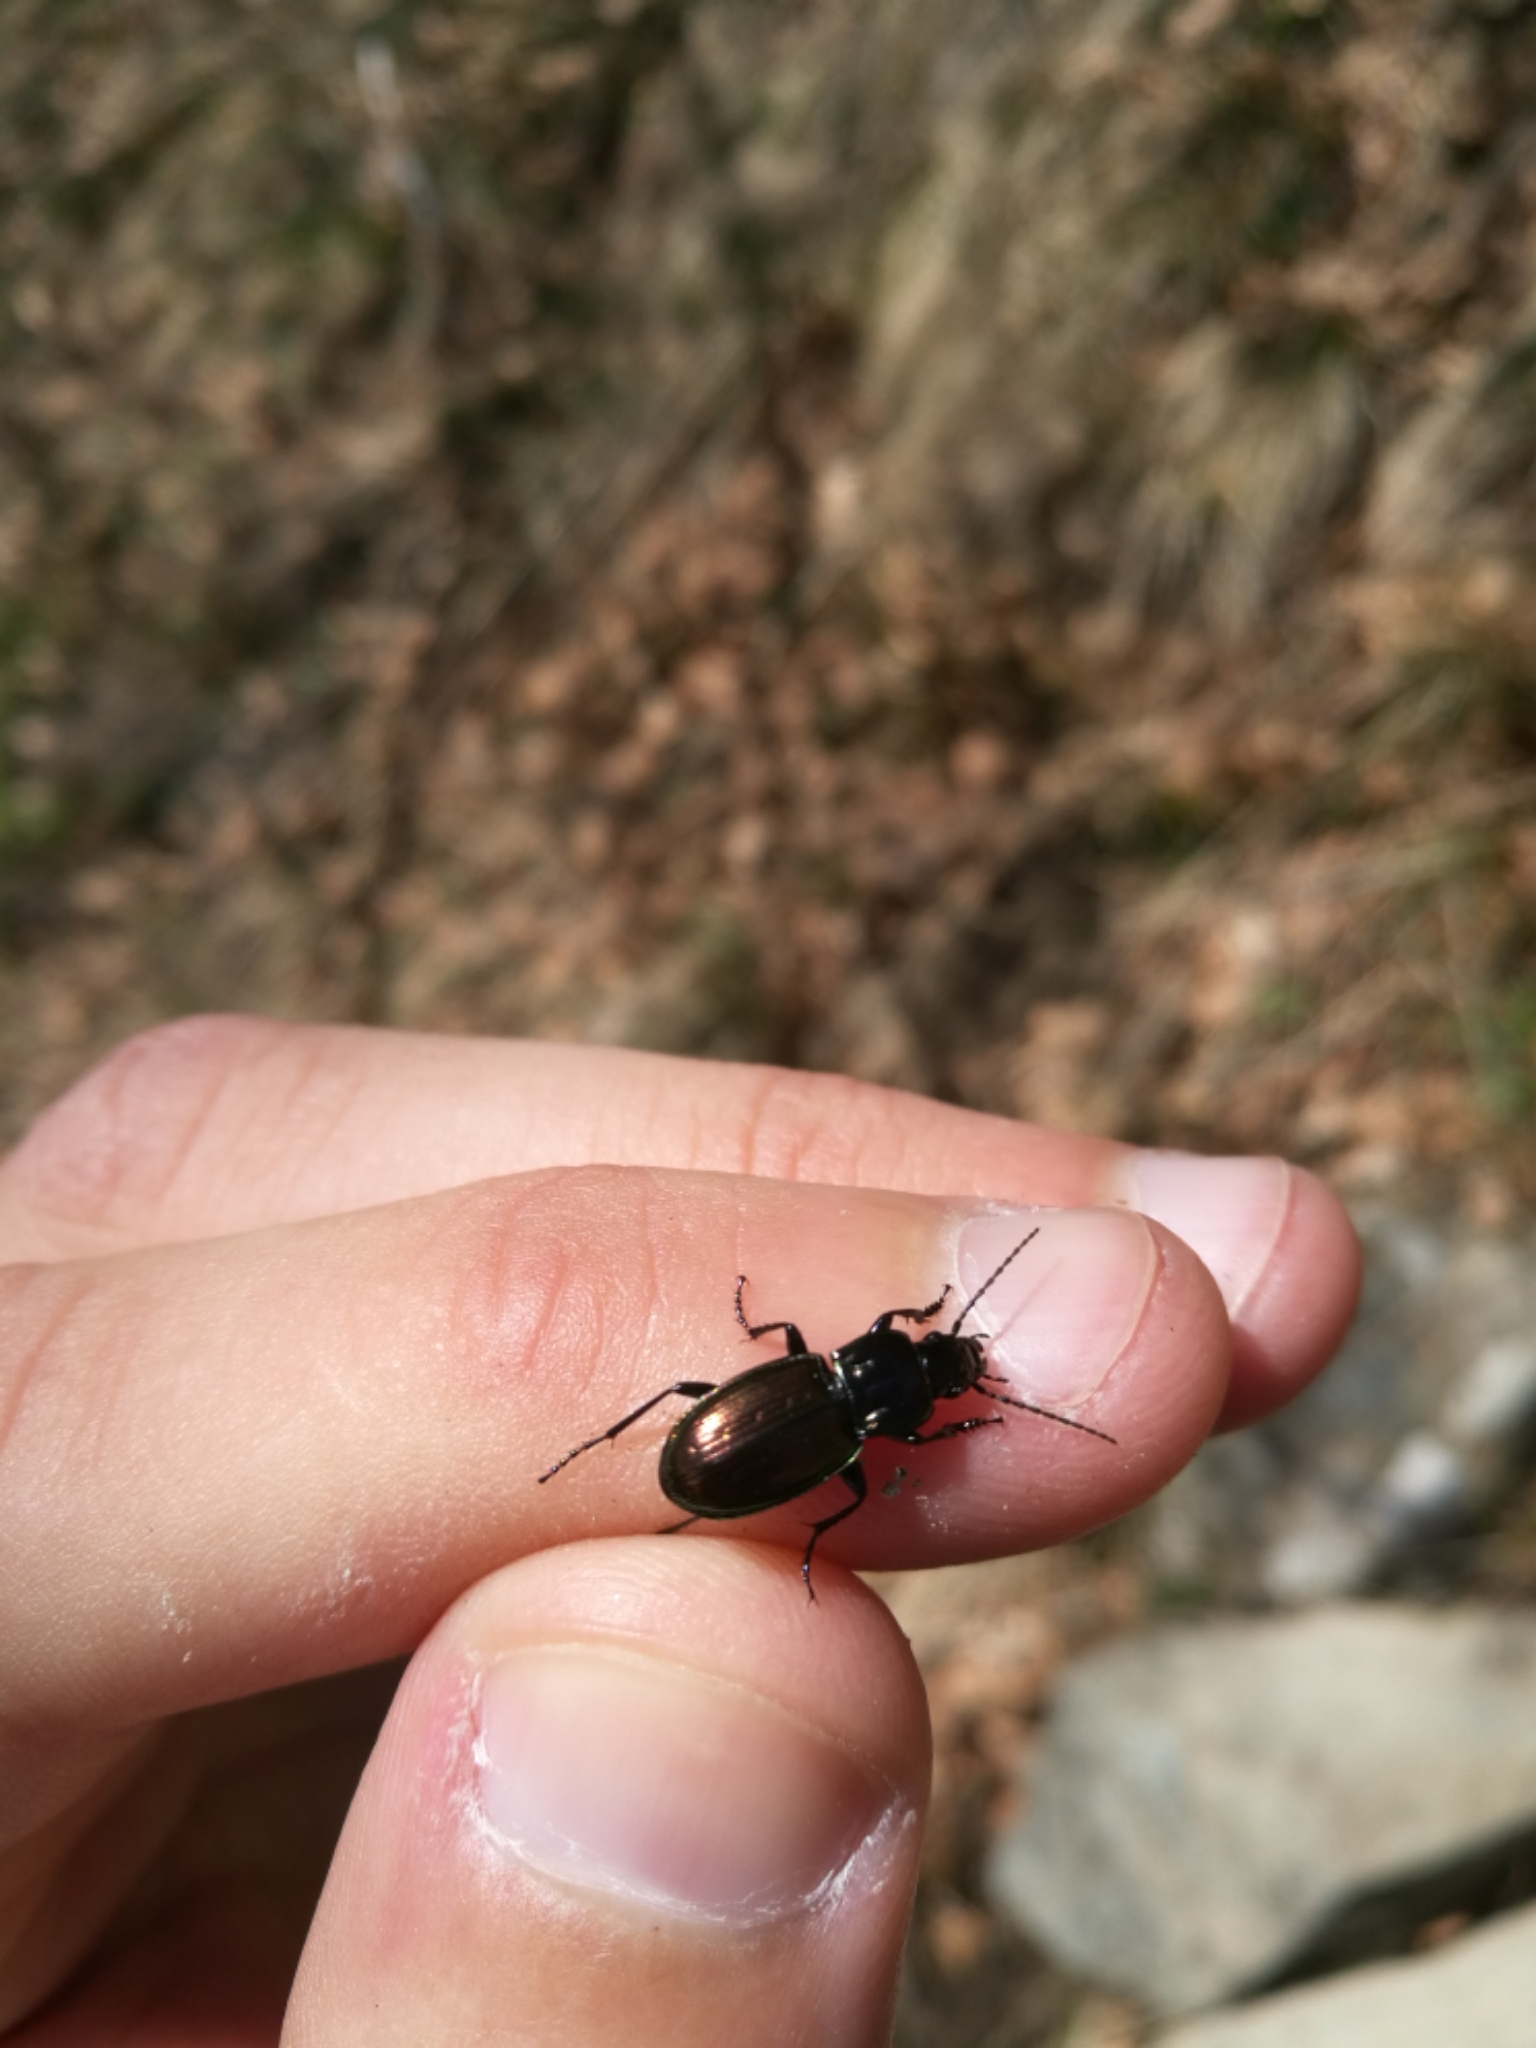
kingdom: Animalia
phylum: Arthropoda
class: Insecta
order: Coleoptera
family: Carabidae
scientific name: Carabidae
